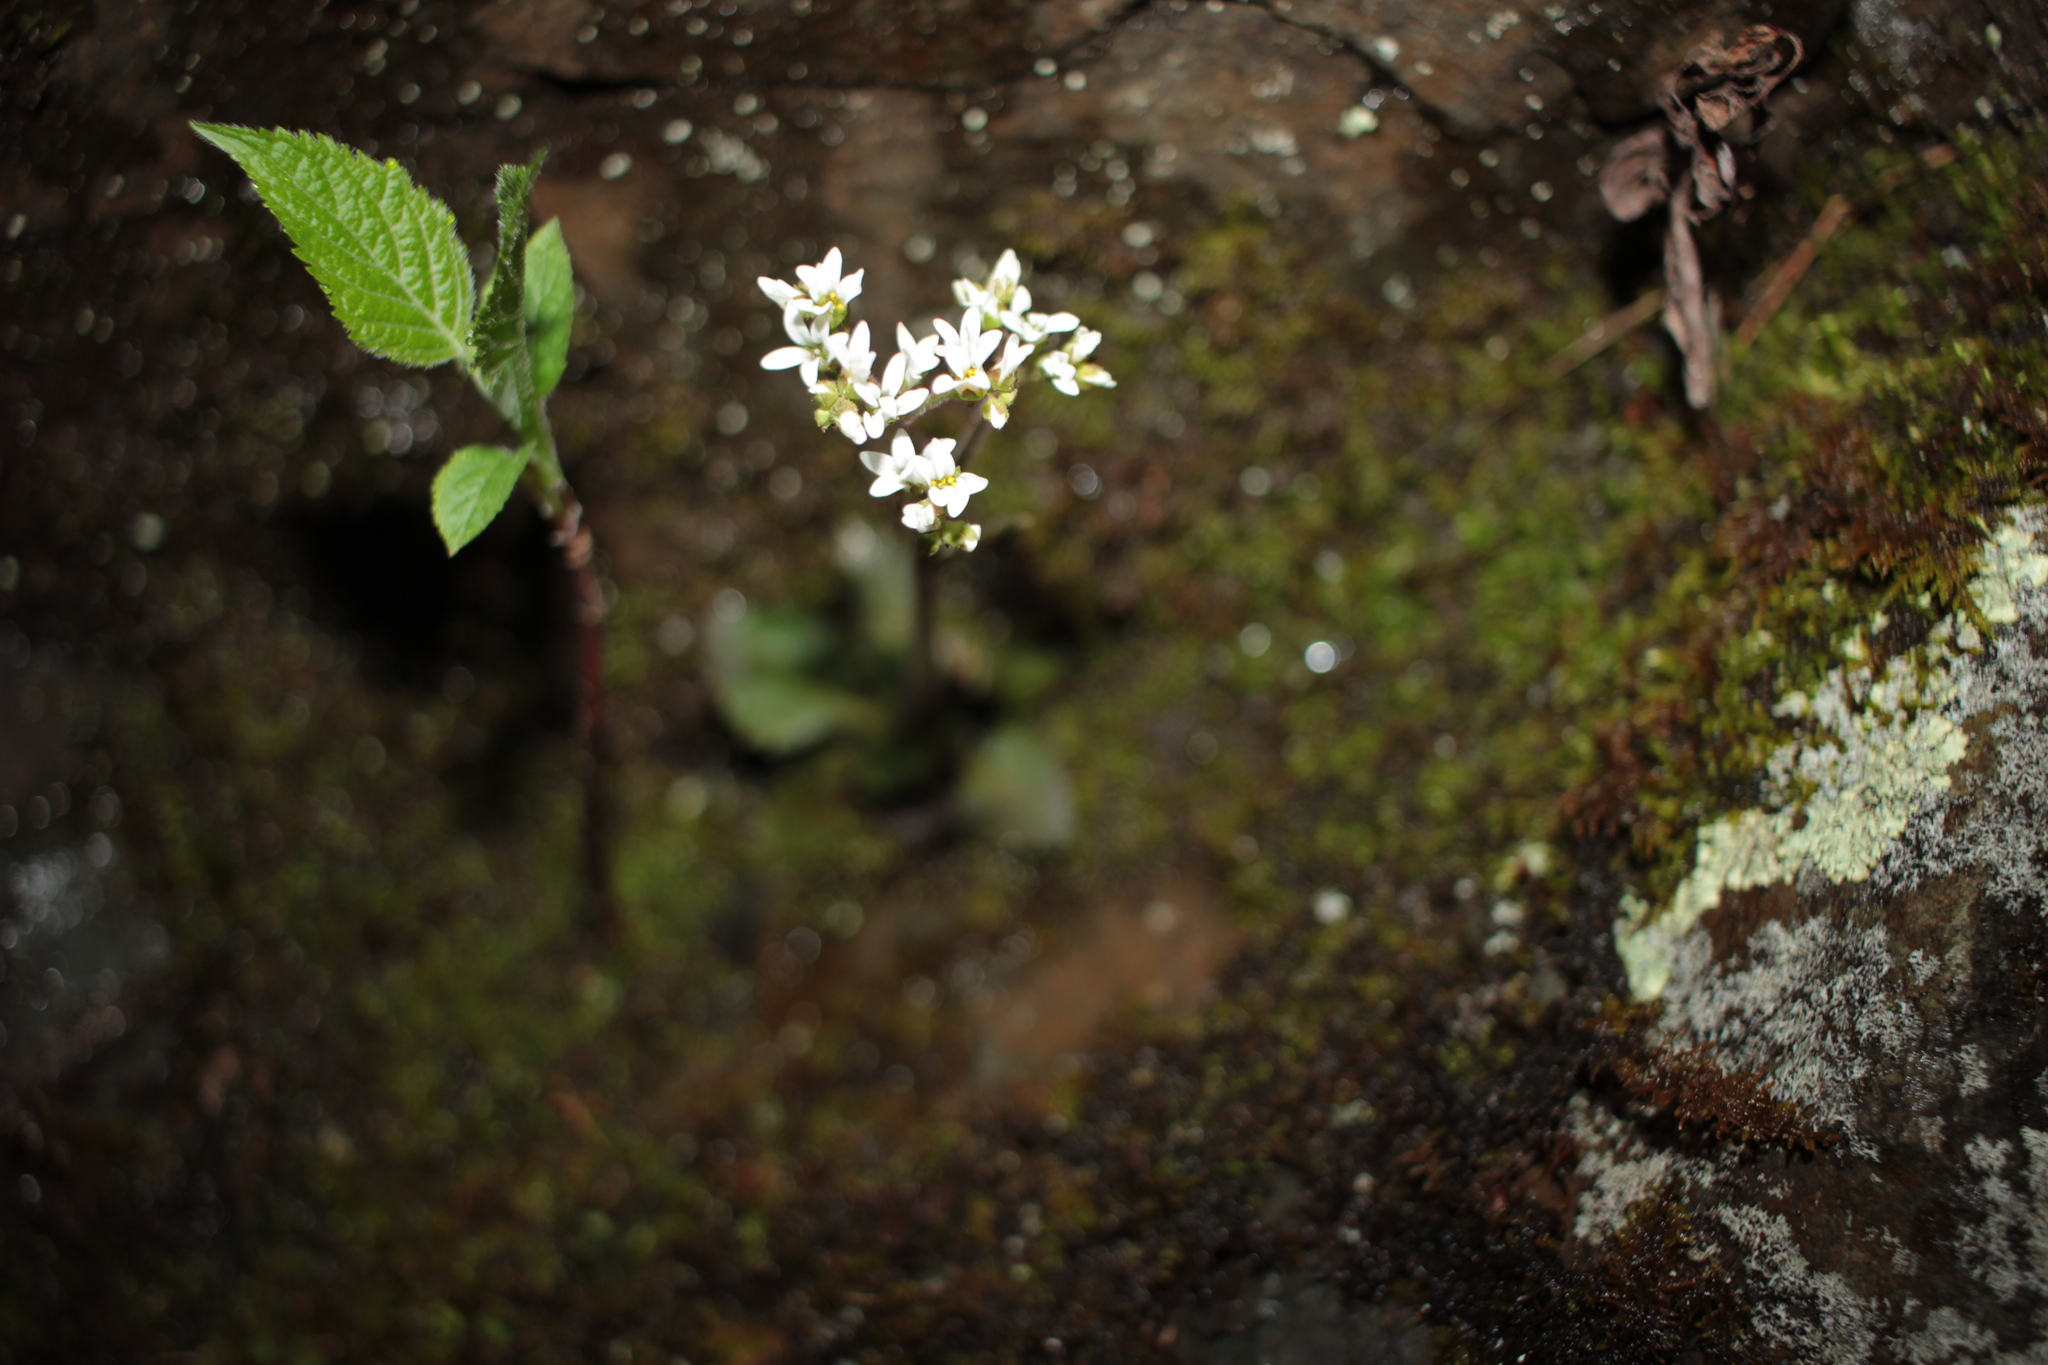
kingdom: Plantae
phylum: Tracheophyta
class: Magnoliopsida
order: Saxifragales
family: Saxifragaceae
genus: Micranthes
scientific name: Micranthes virginiensis
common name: Early saxifrage
